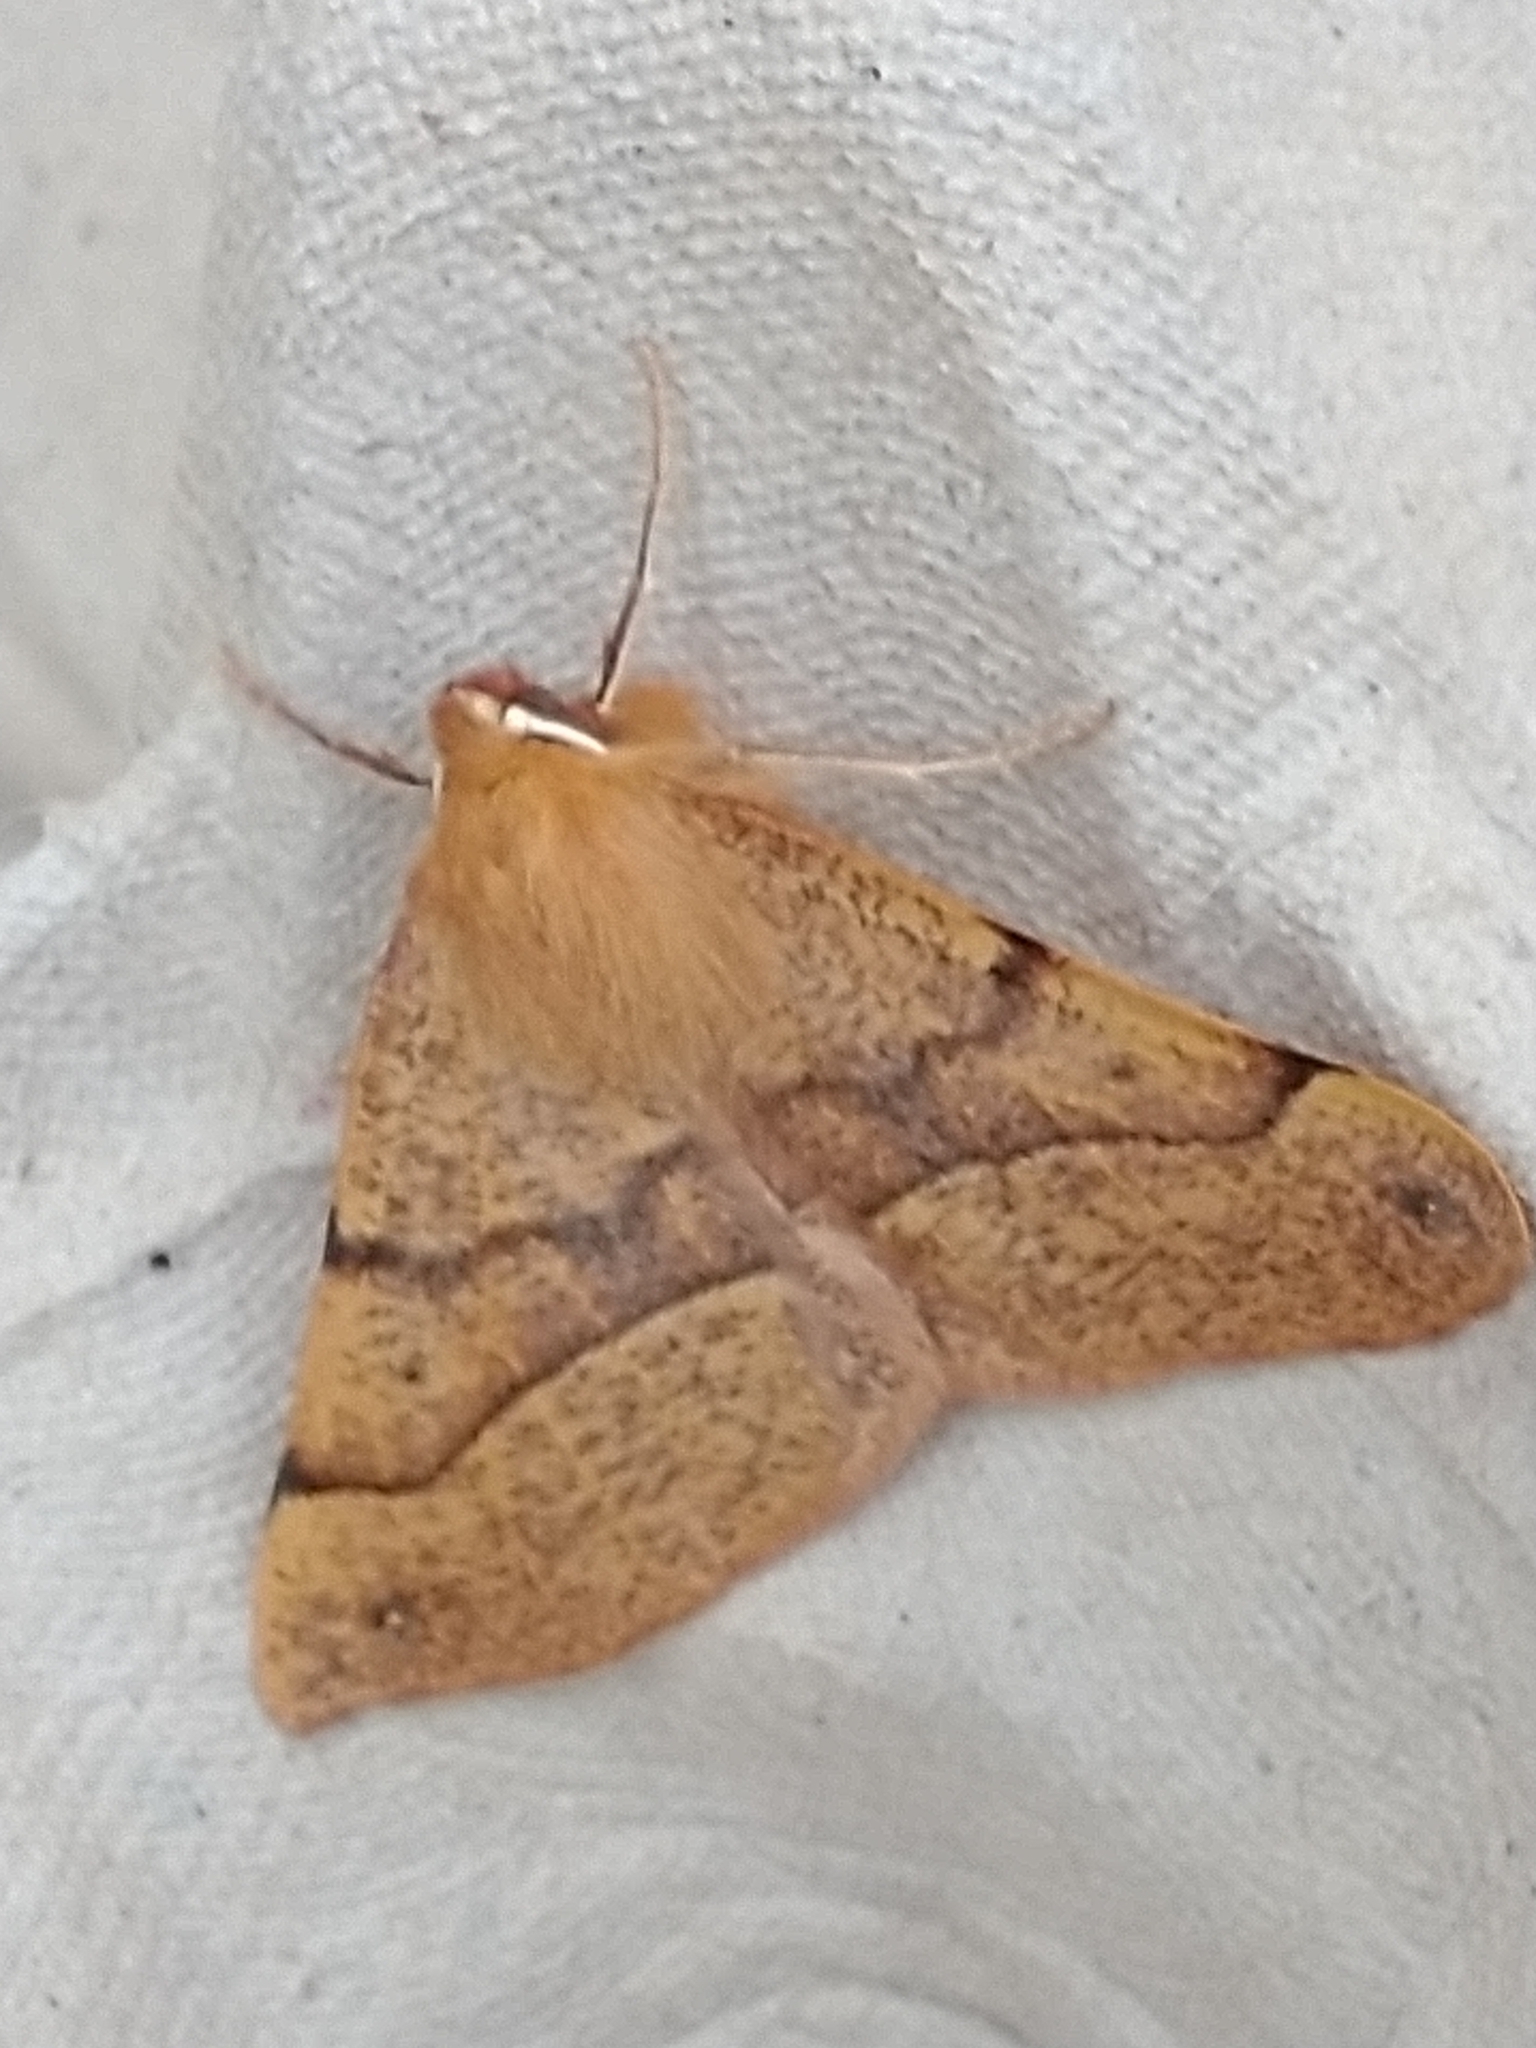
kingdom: Animalia
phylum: Arthropoda
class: Insecta
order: Lepidoptera
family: Geometridae
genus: Colotois
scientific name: Colotois pennaria
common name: Feathered thorn
